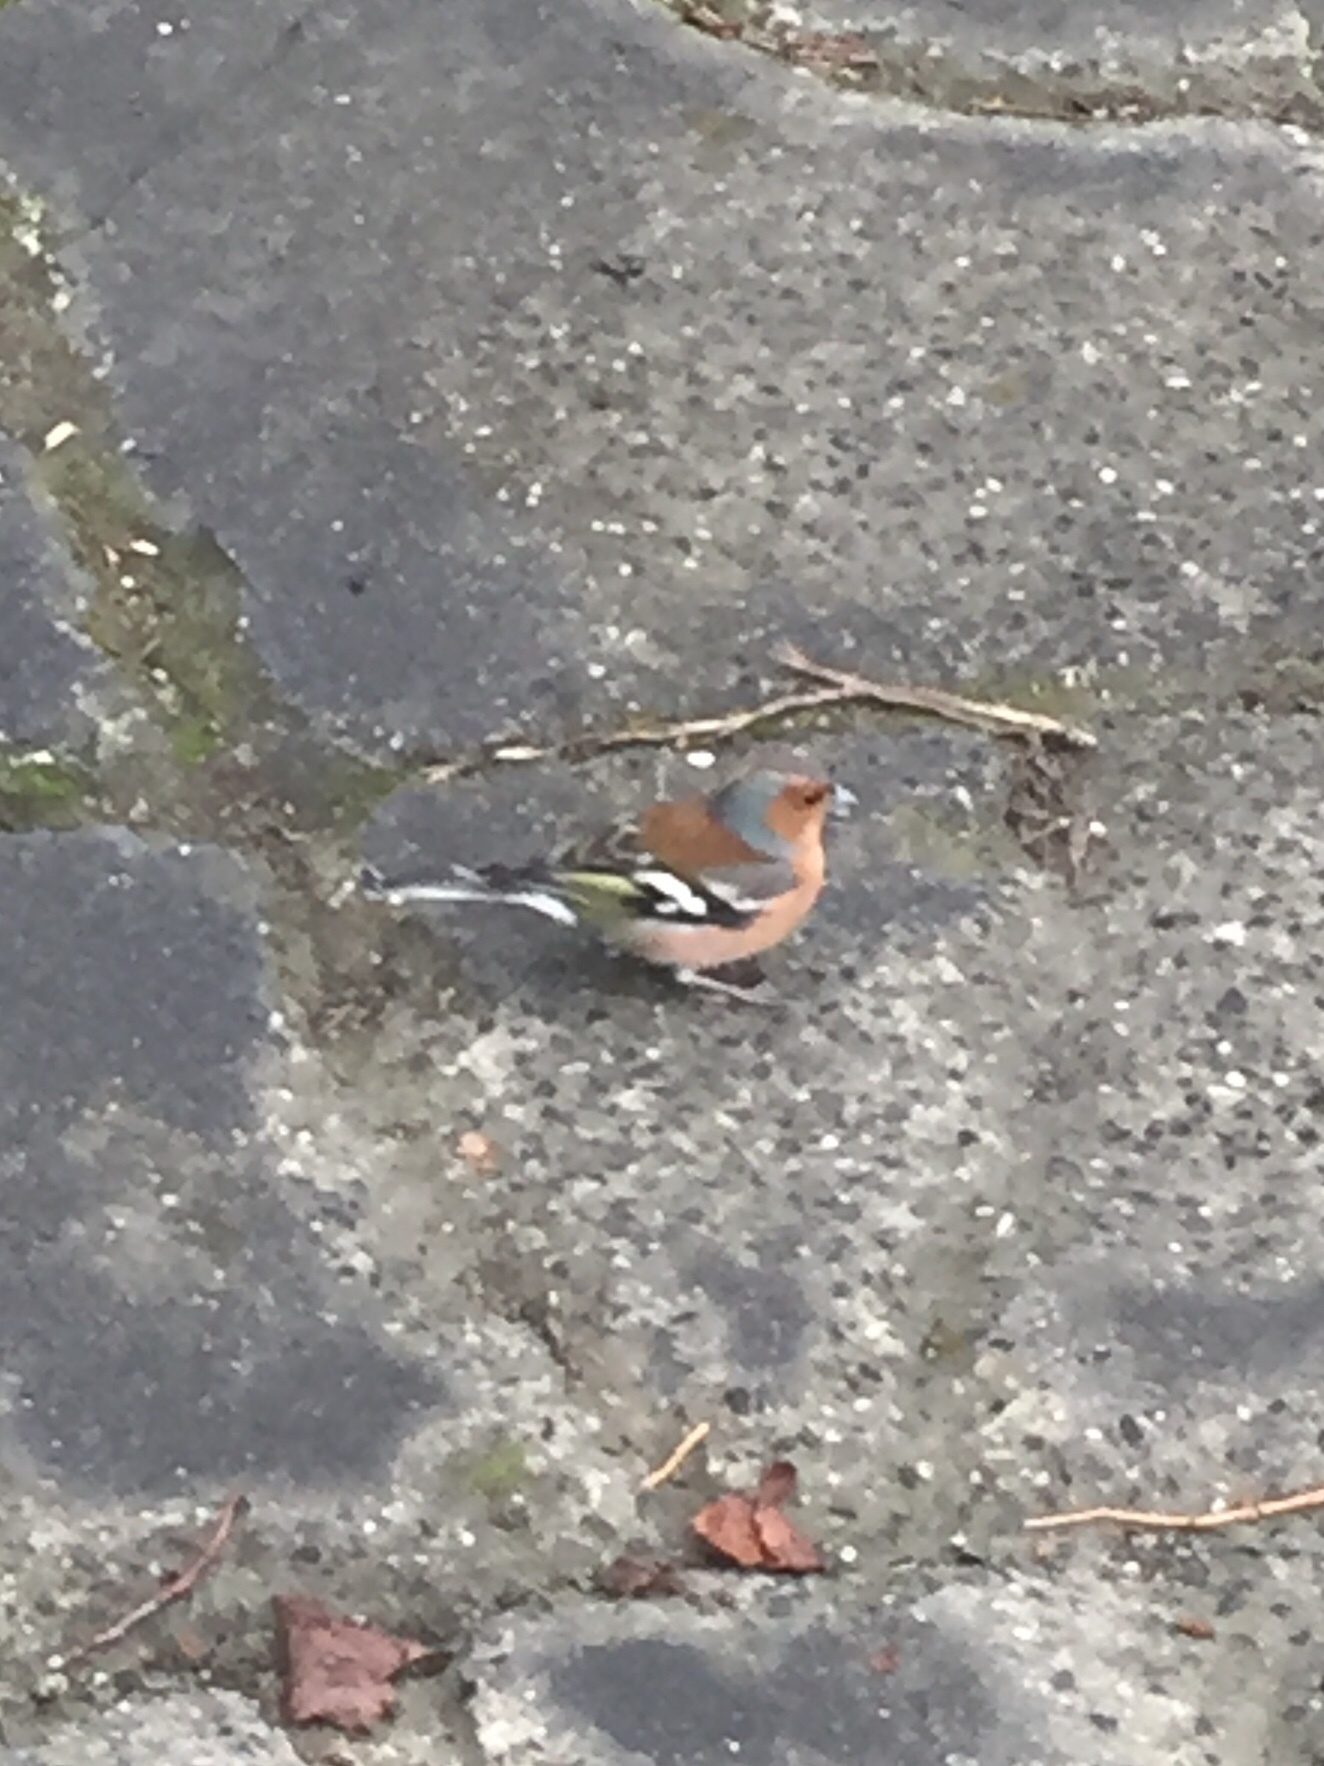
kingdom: Animalia
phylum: Chordata
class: Aves
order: Passeriformes
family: Fringillidae
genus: Fringilla
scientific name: Fringilla coelebs
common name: Common chaffinch
